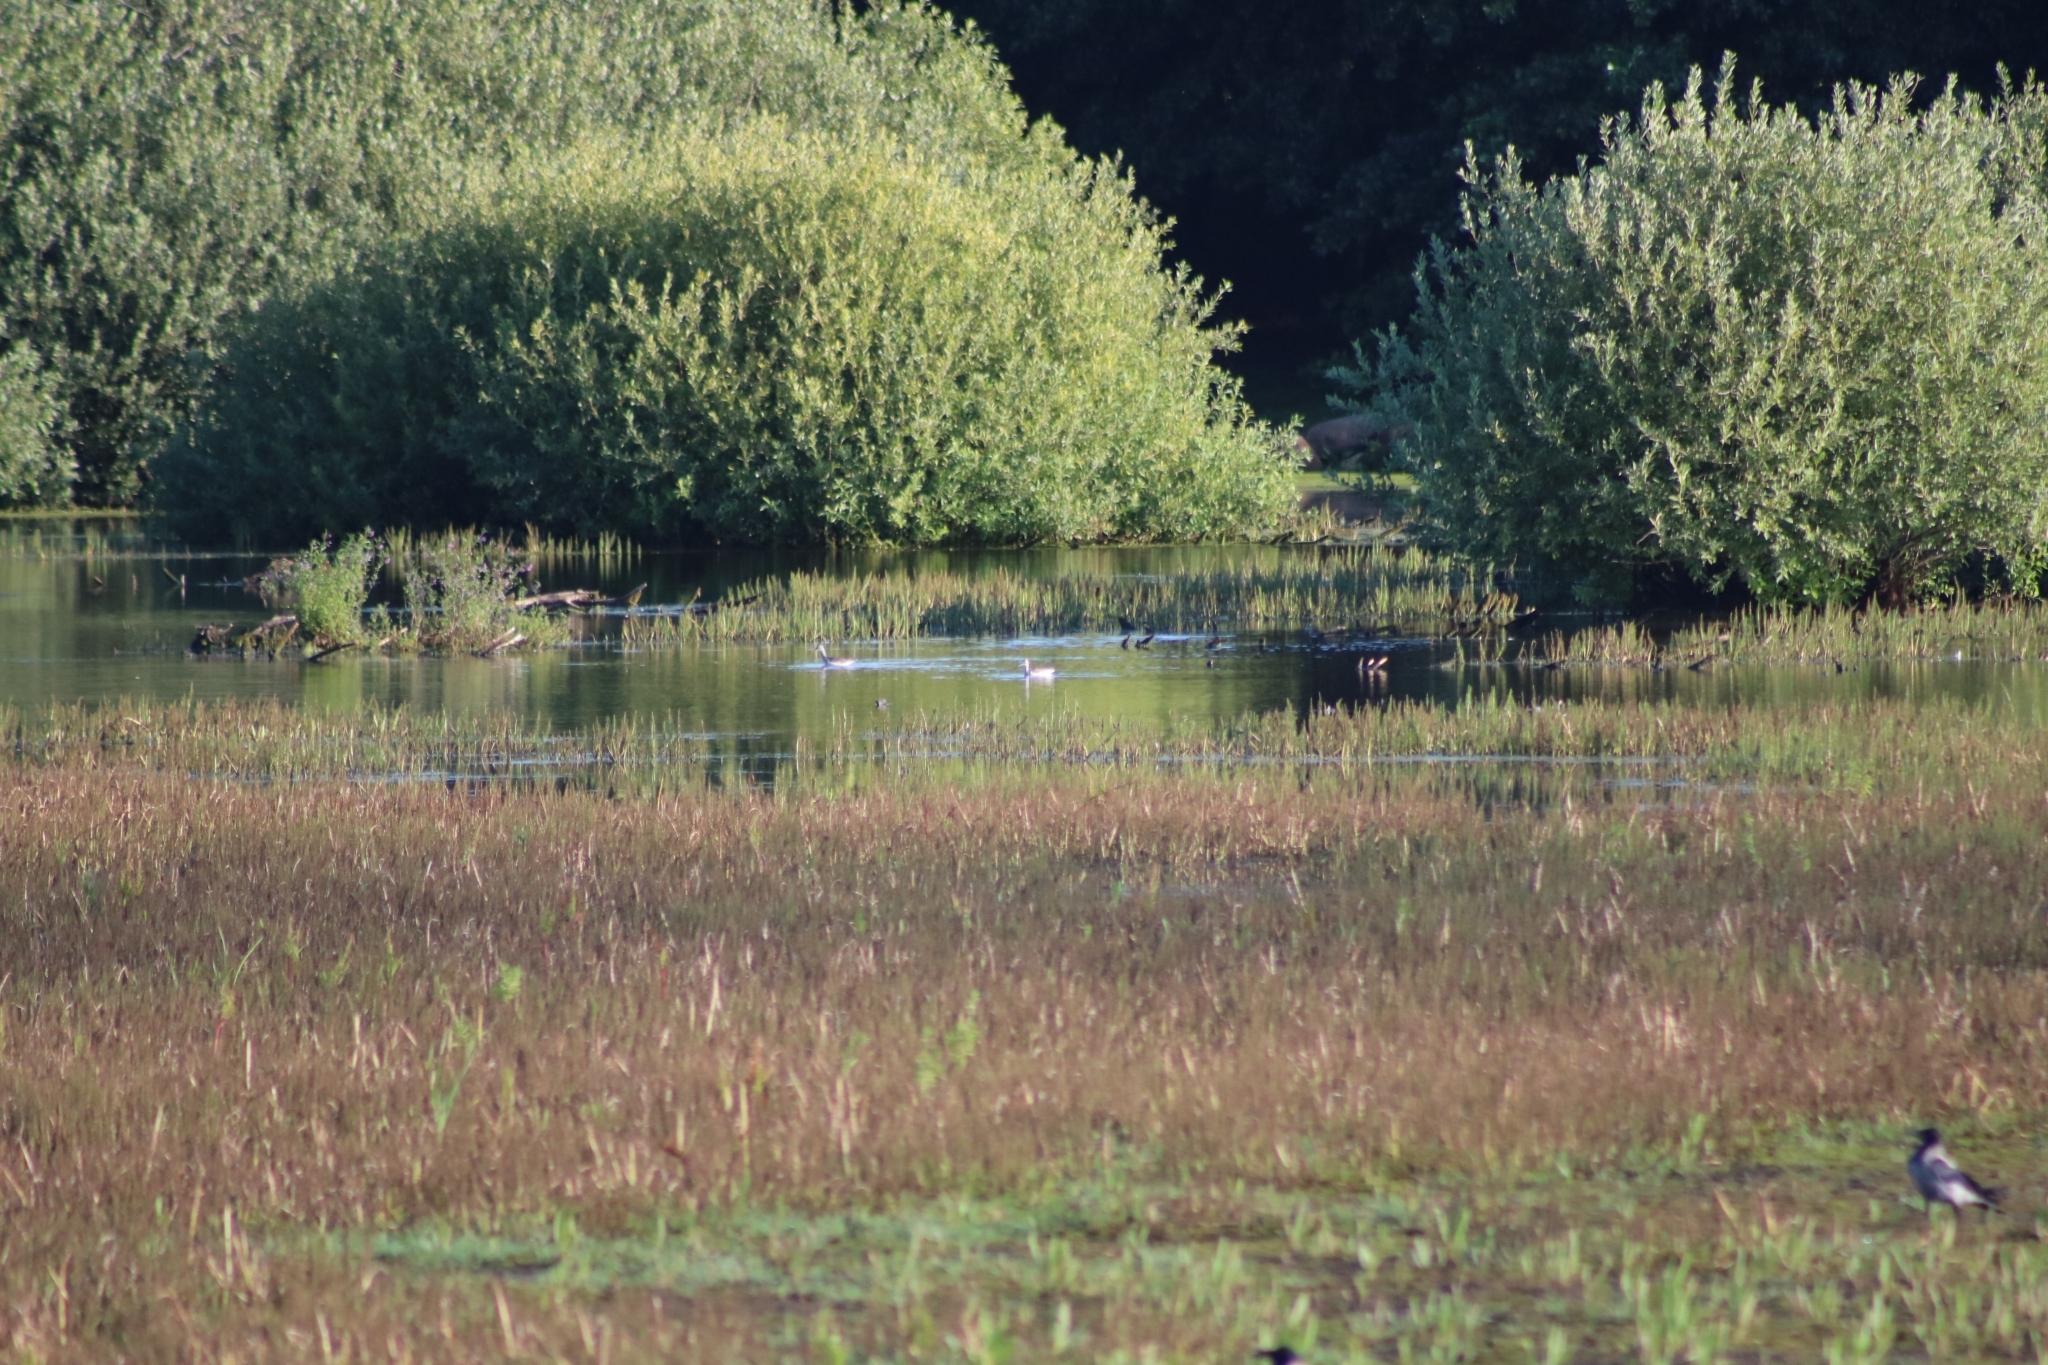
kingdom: Animalia
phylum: Chordata
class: Aves
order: Charadriiformes
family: Scolopacidae
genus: Tringa
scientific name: Tringa nebularia
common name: Common greenshank
